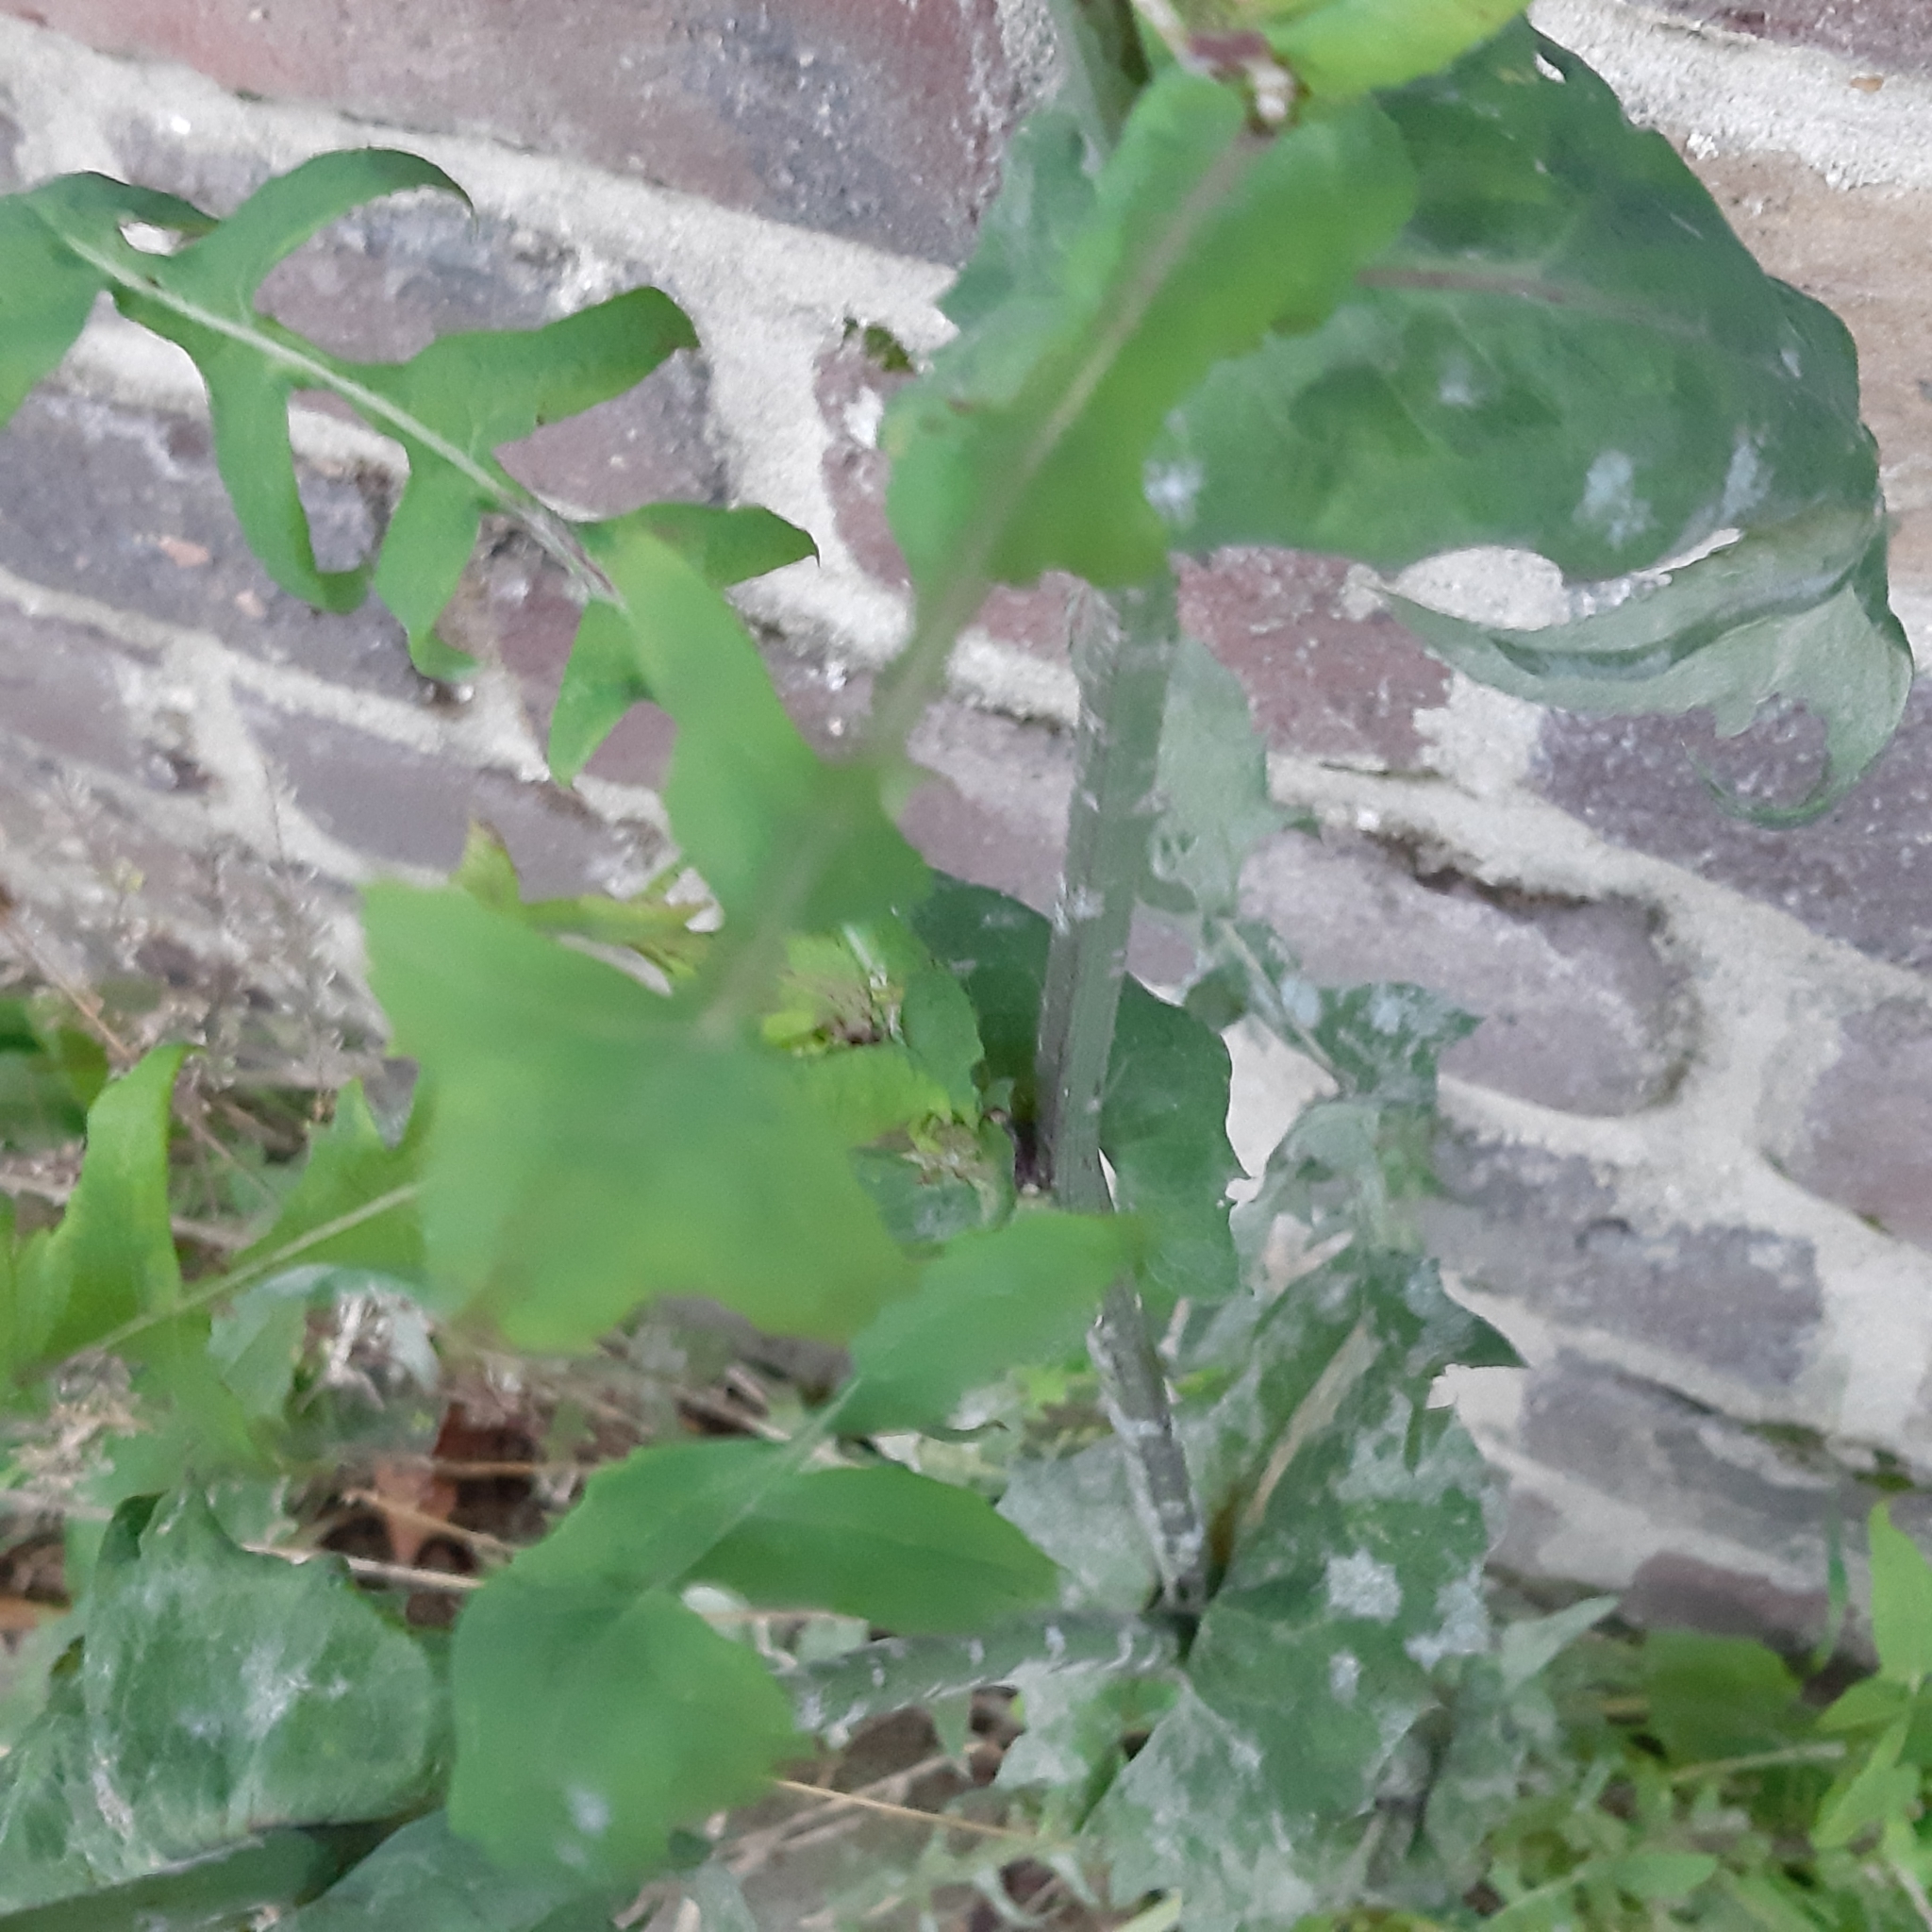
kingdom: Plantae
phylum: Tracheophyta
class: Magnoliopsida
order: Asterales
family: Asteraceae
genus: Sonchus
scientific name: Sonchus oleraceus
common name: Common sowthistle
